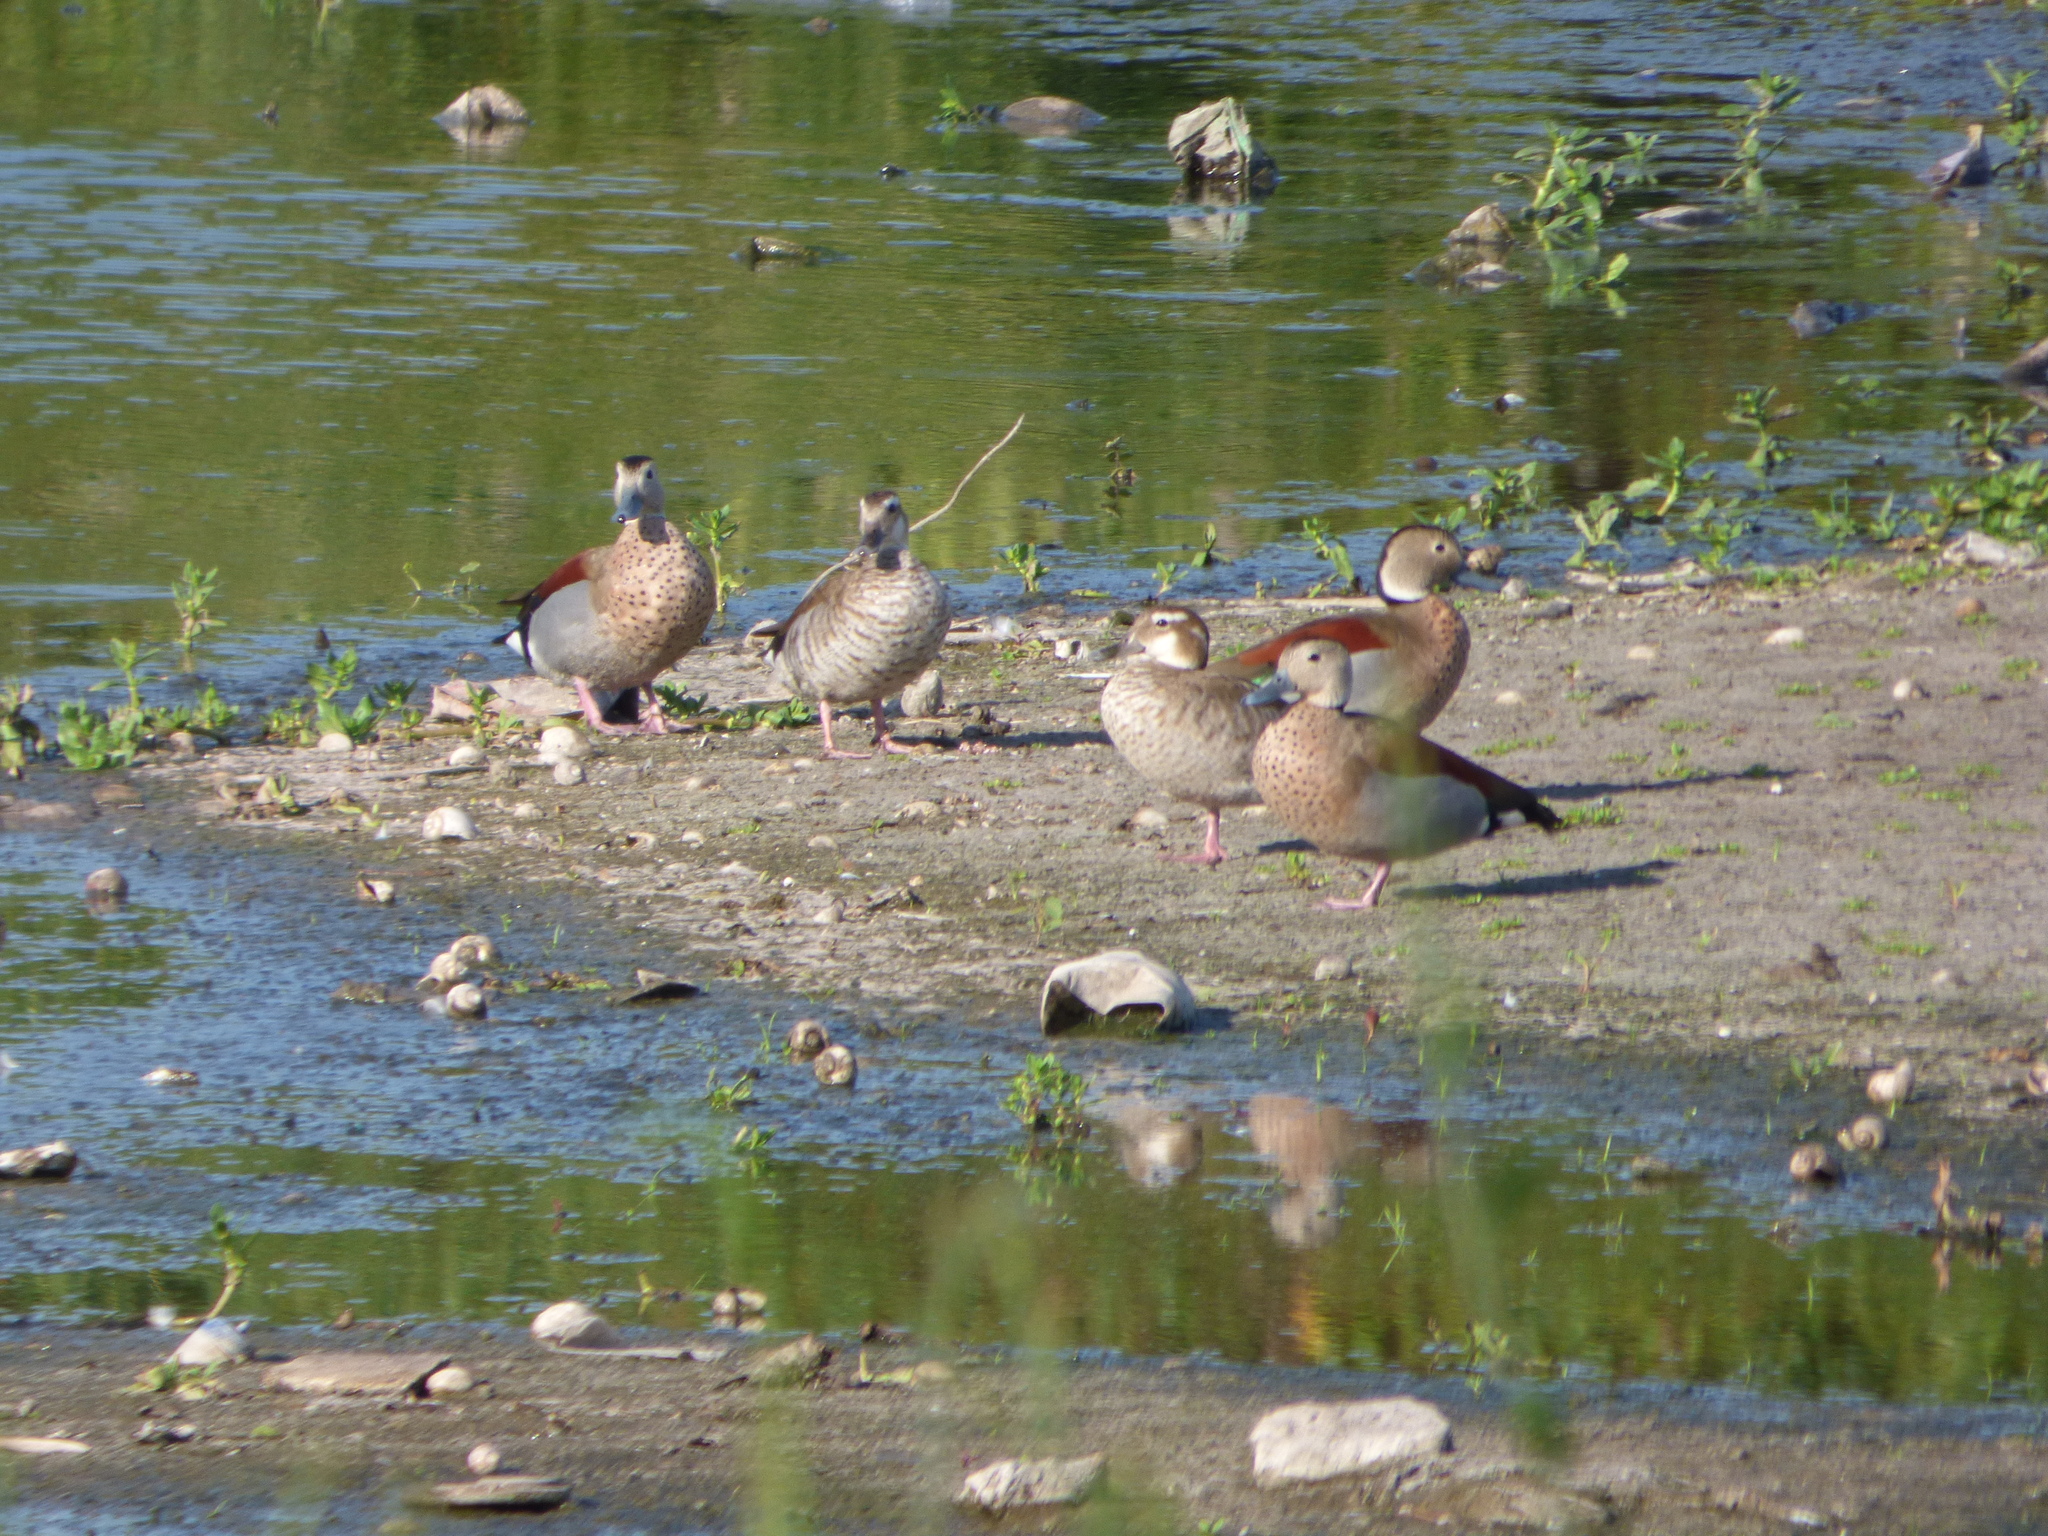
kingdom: Animalia
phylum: Chordata
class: Aves
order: Anseriformes
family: Anatidae
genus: Callonetta
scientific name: Callonetta leucophrys
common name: Ringed teal
